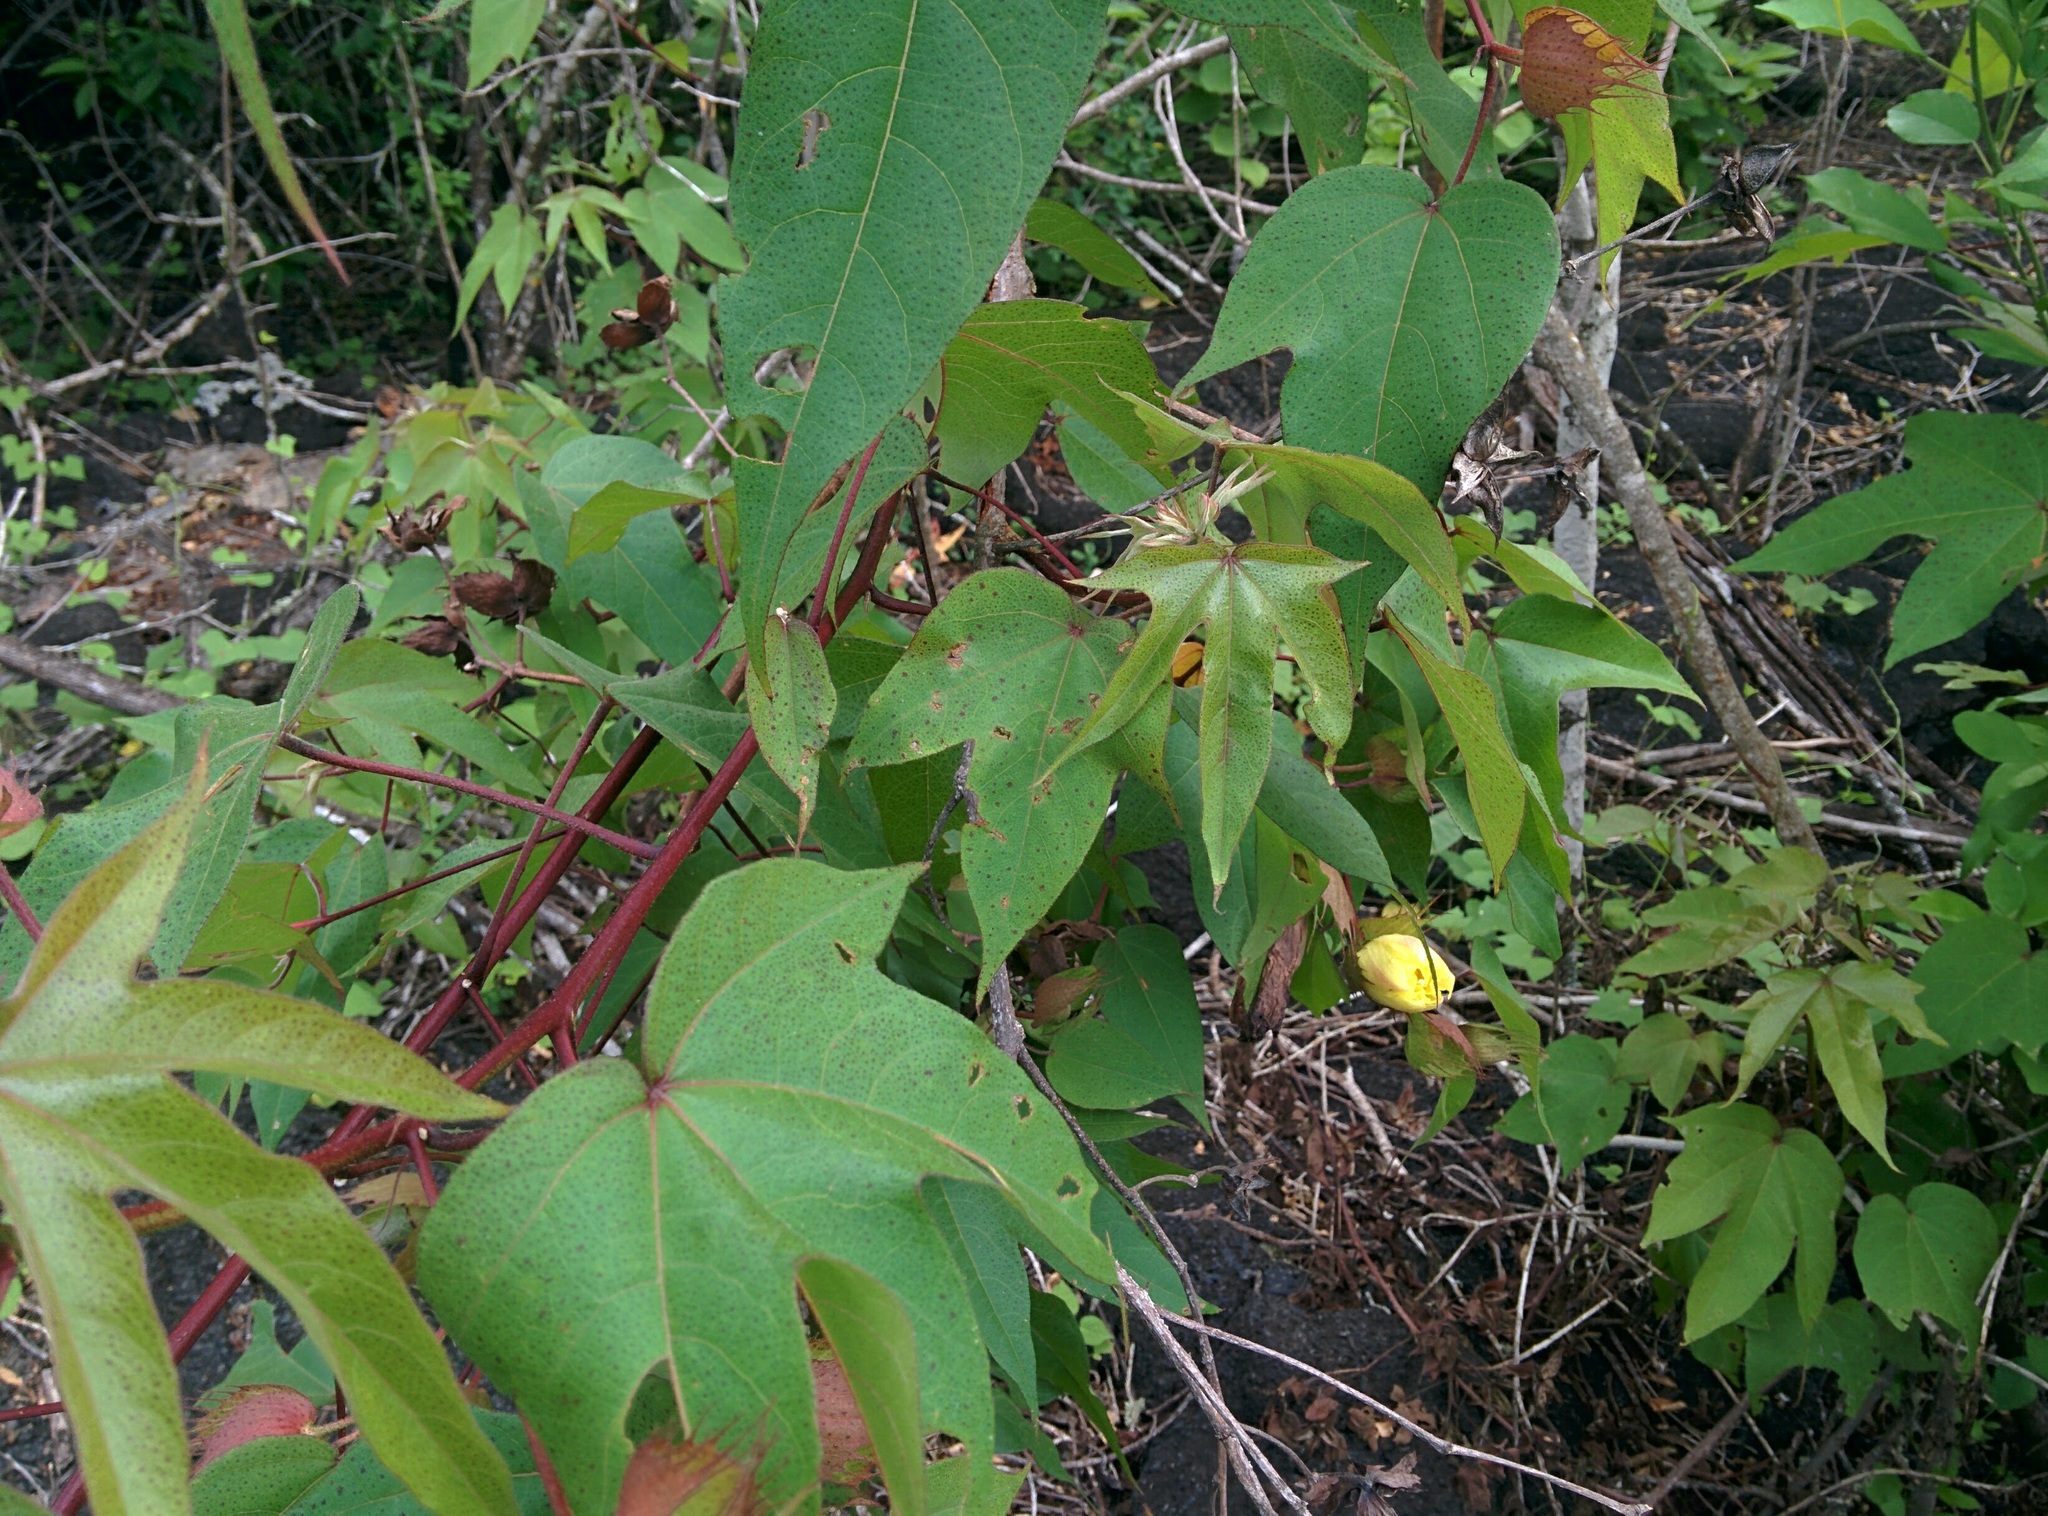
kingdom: Plantae
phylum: Tracheophyta
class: Magnoliopsida
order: Malvales
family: Malvaceae
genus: Gossypium
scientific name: Gossypium darwinii
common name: Darwin's cotton
